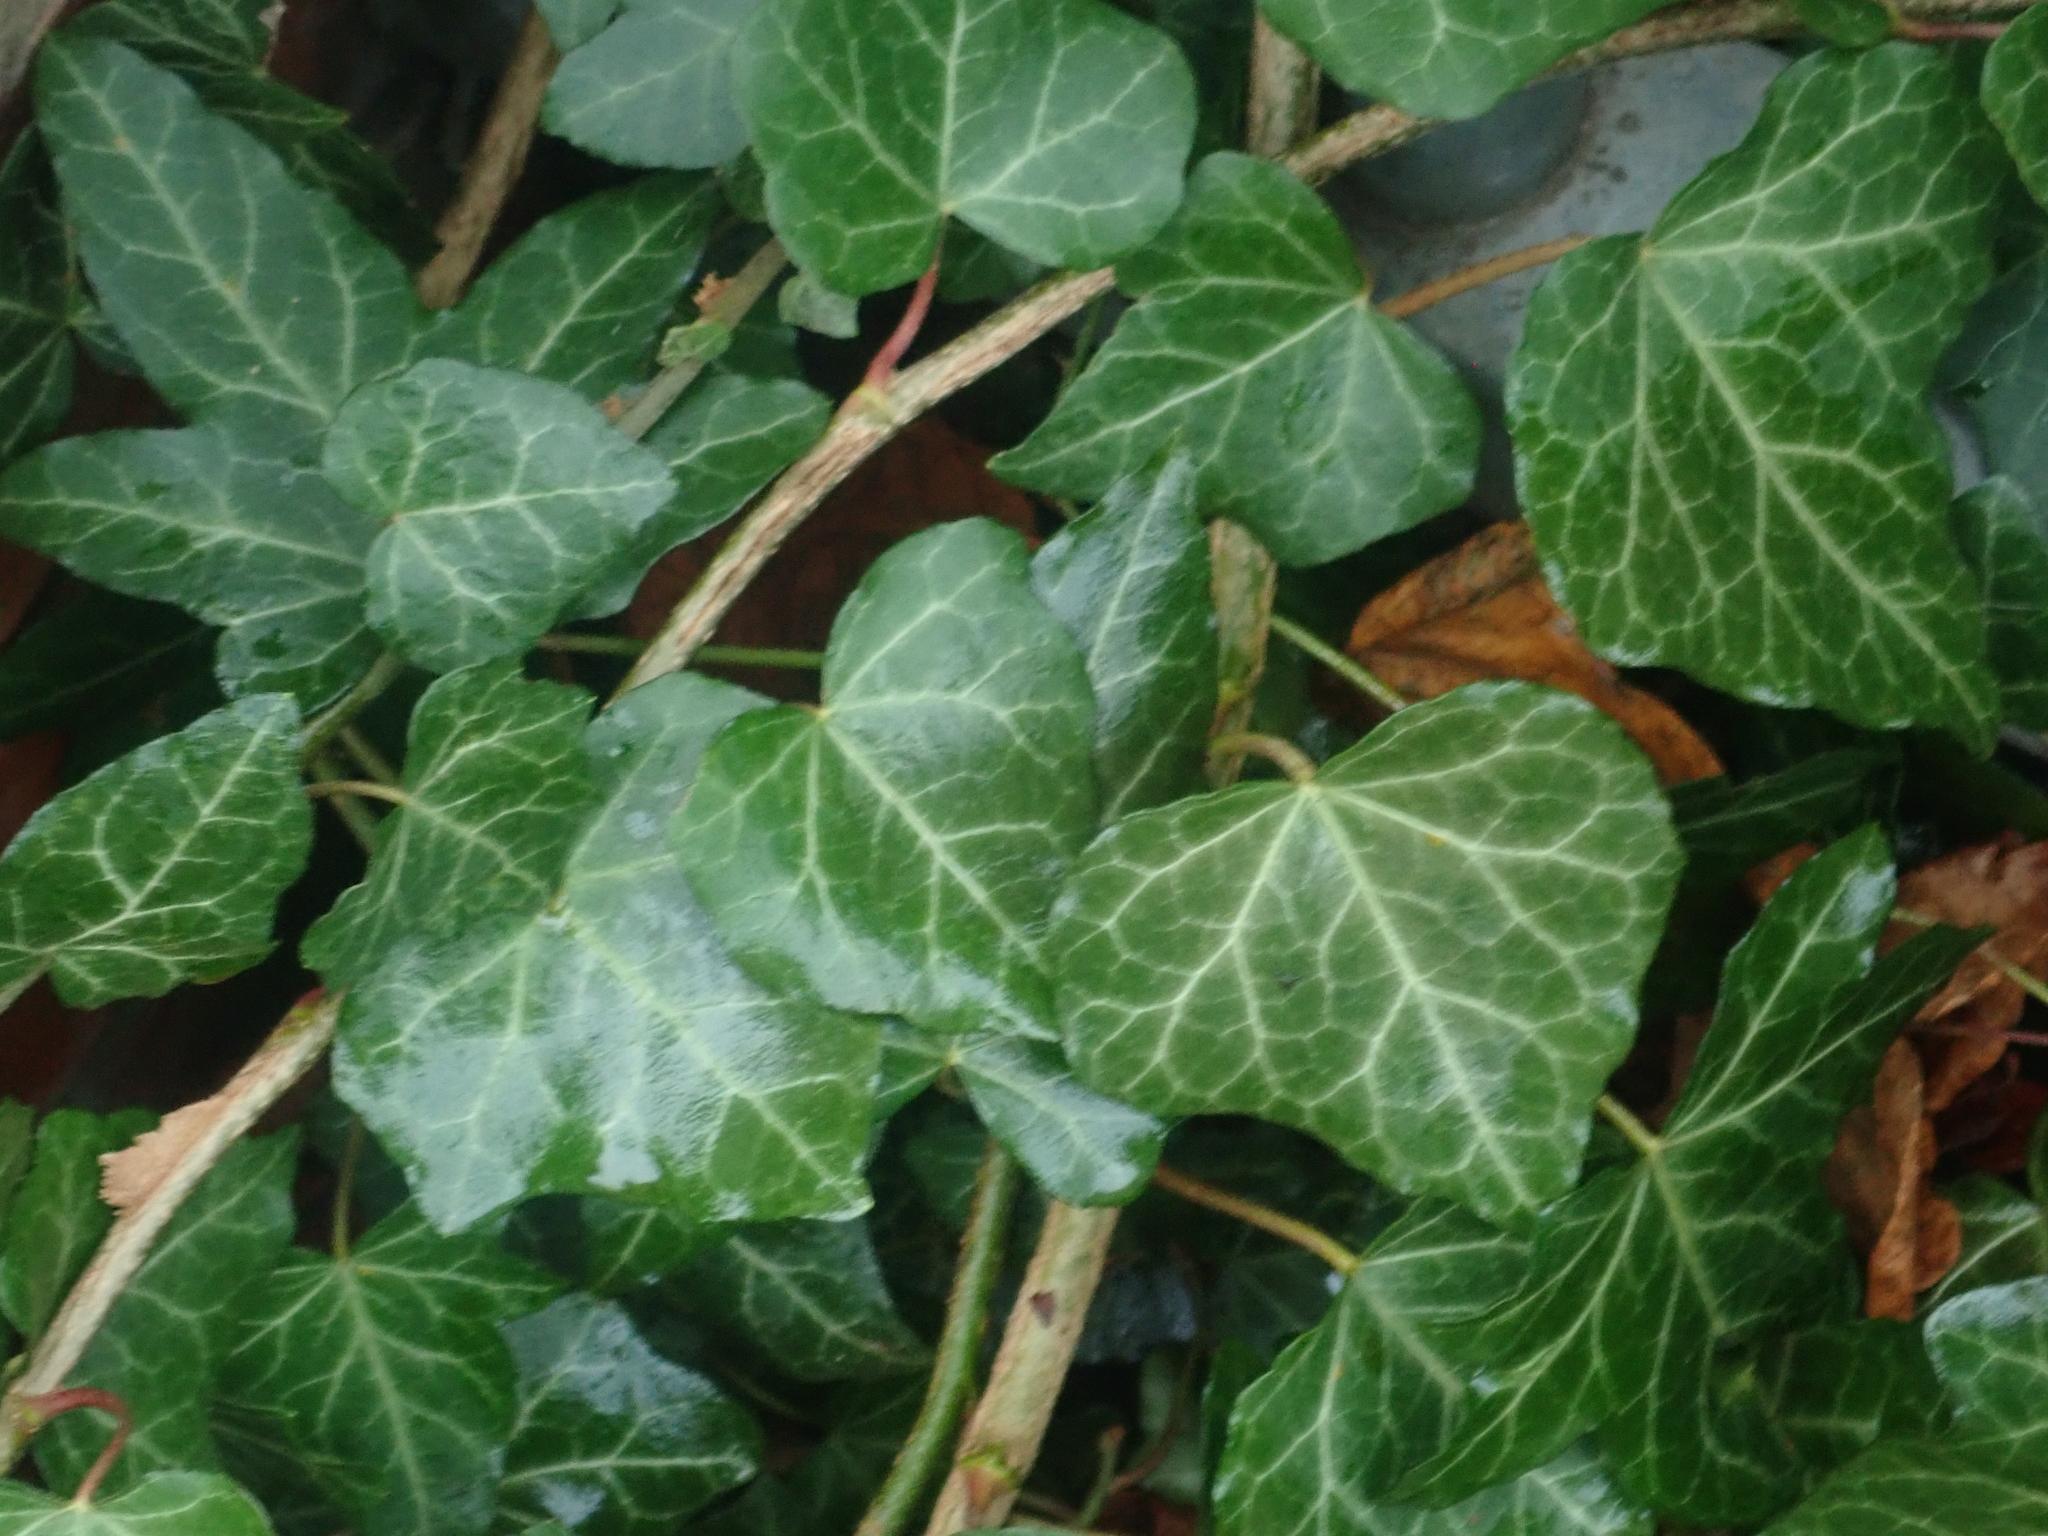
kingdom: Plantae
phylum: Tracheophyta
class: Magnoliopsida
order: Apiales
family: Araliaceae
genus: Hedera
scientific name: Hedera helix
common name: Ivy
